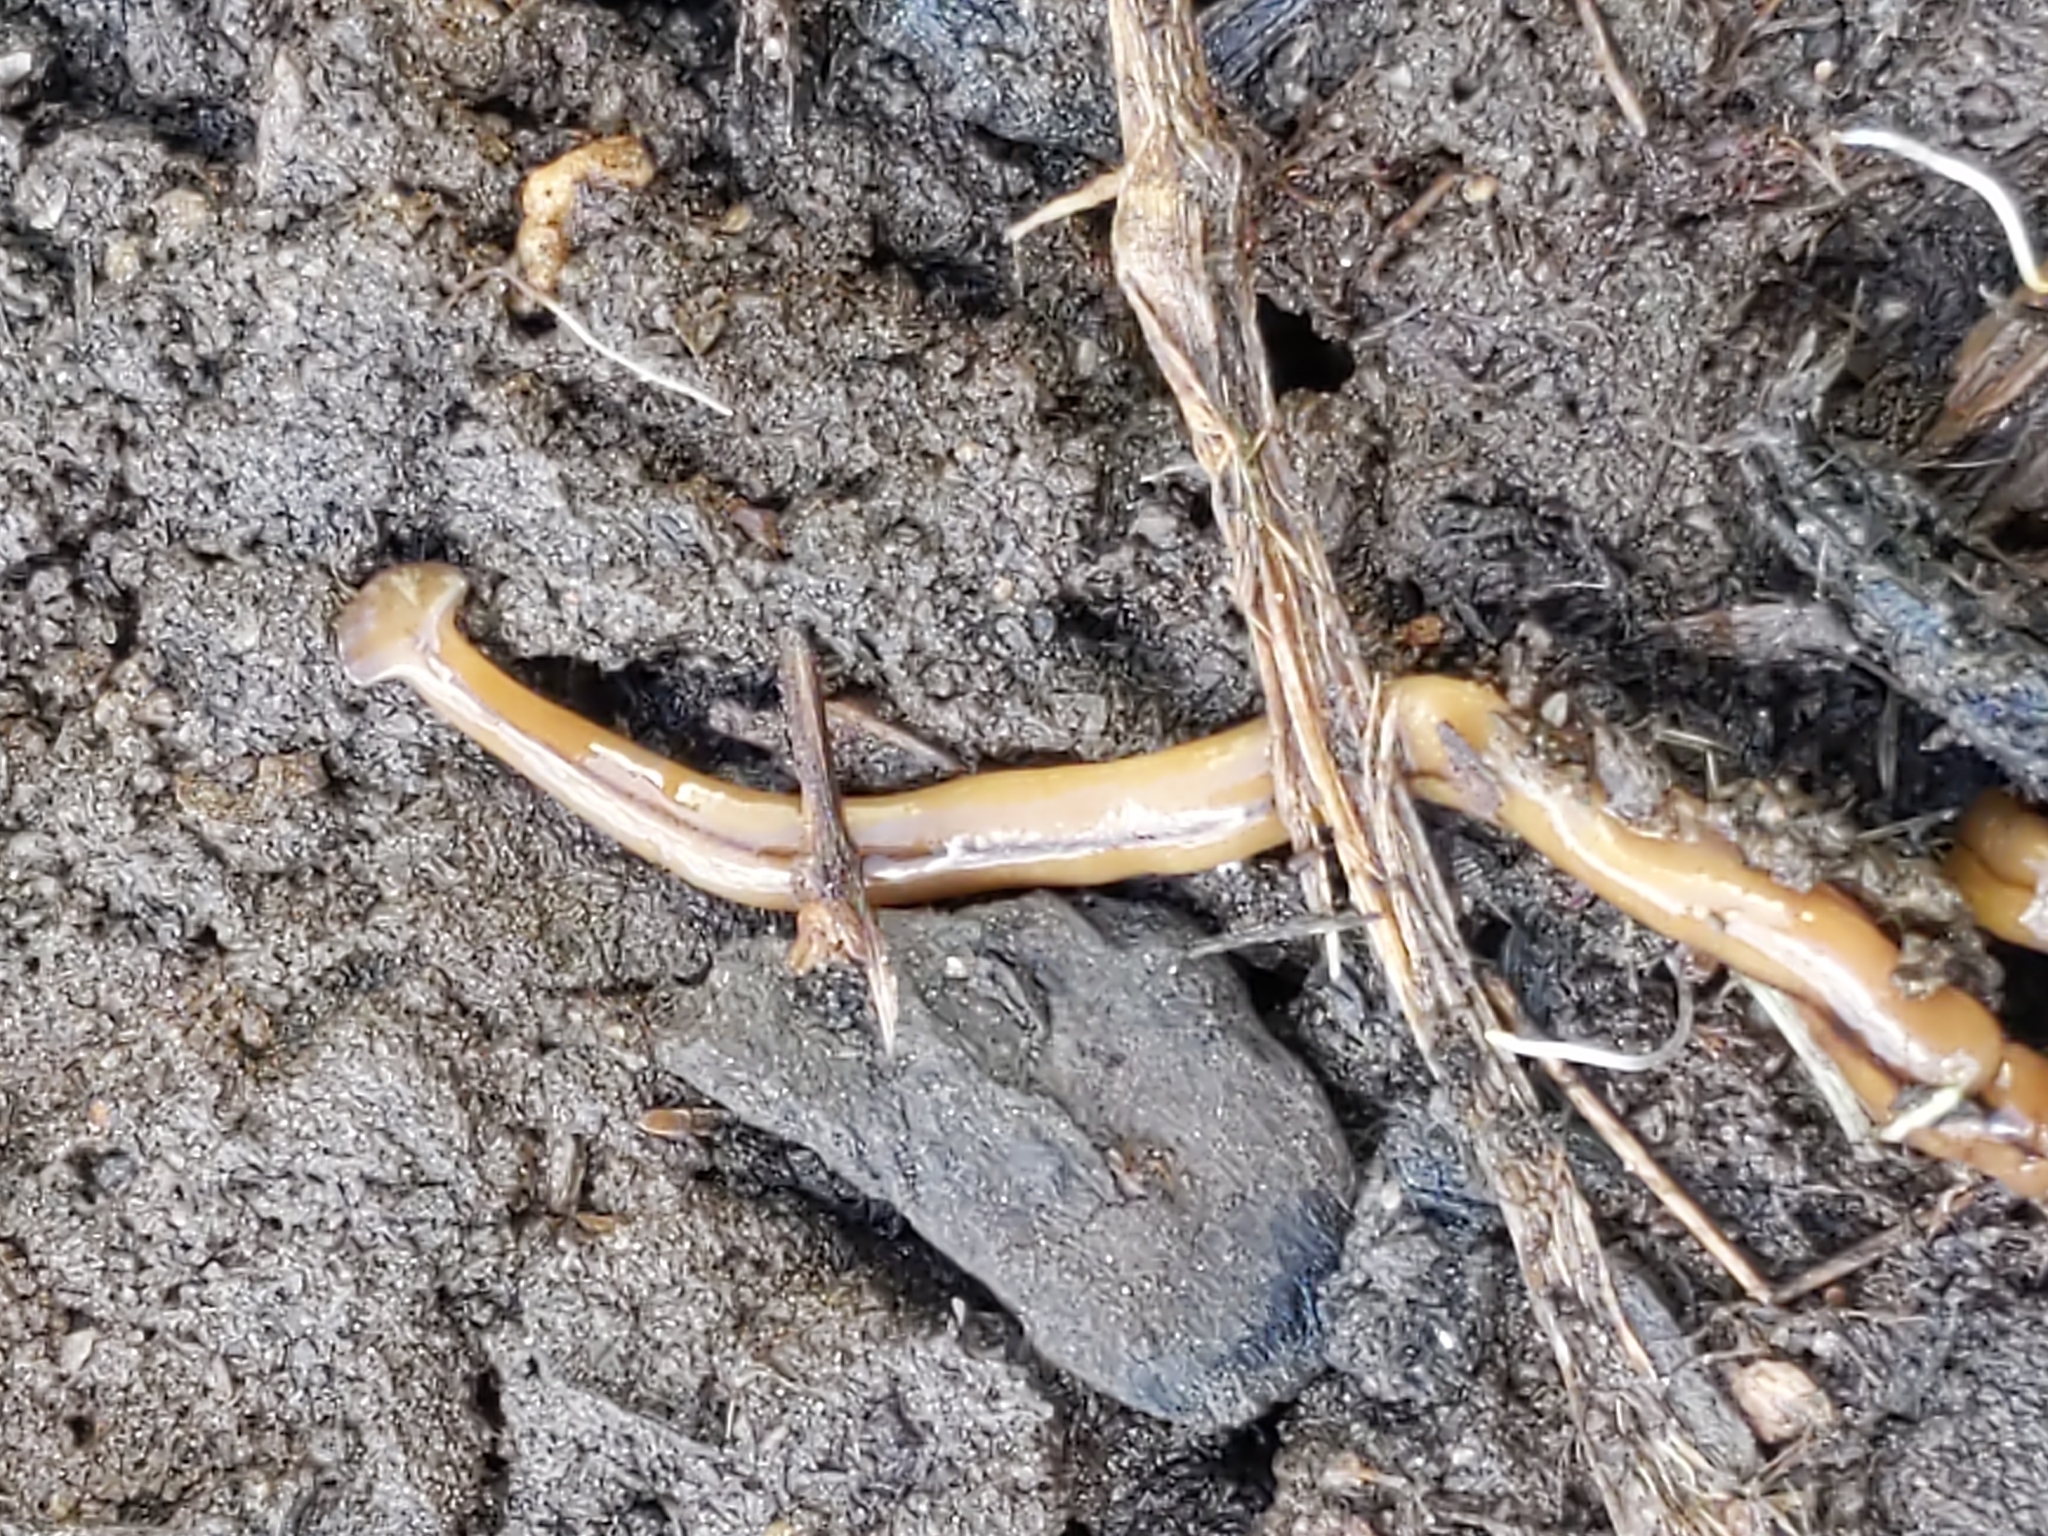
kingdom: Animalia
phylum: Platyhelminthes
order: Tricladida
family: Geoplanidae
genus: Bipalium
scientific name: Bipalium adventitium
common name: Land planarian
